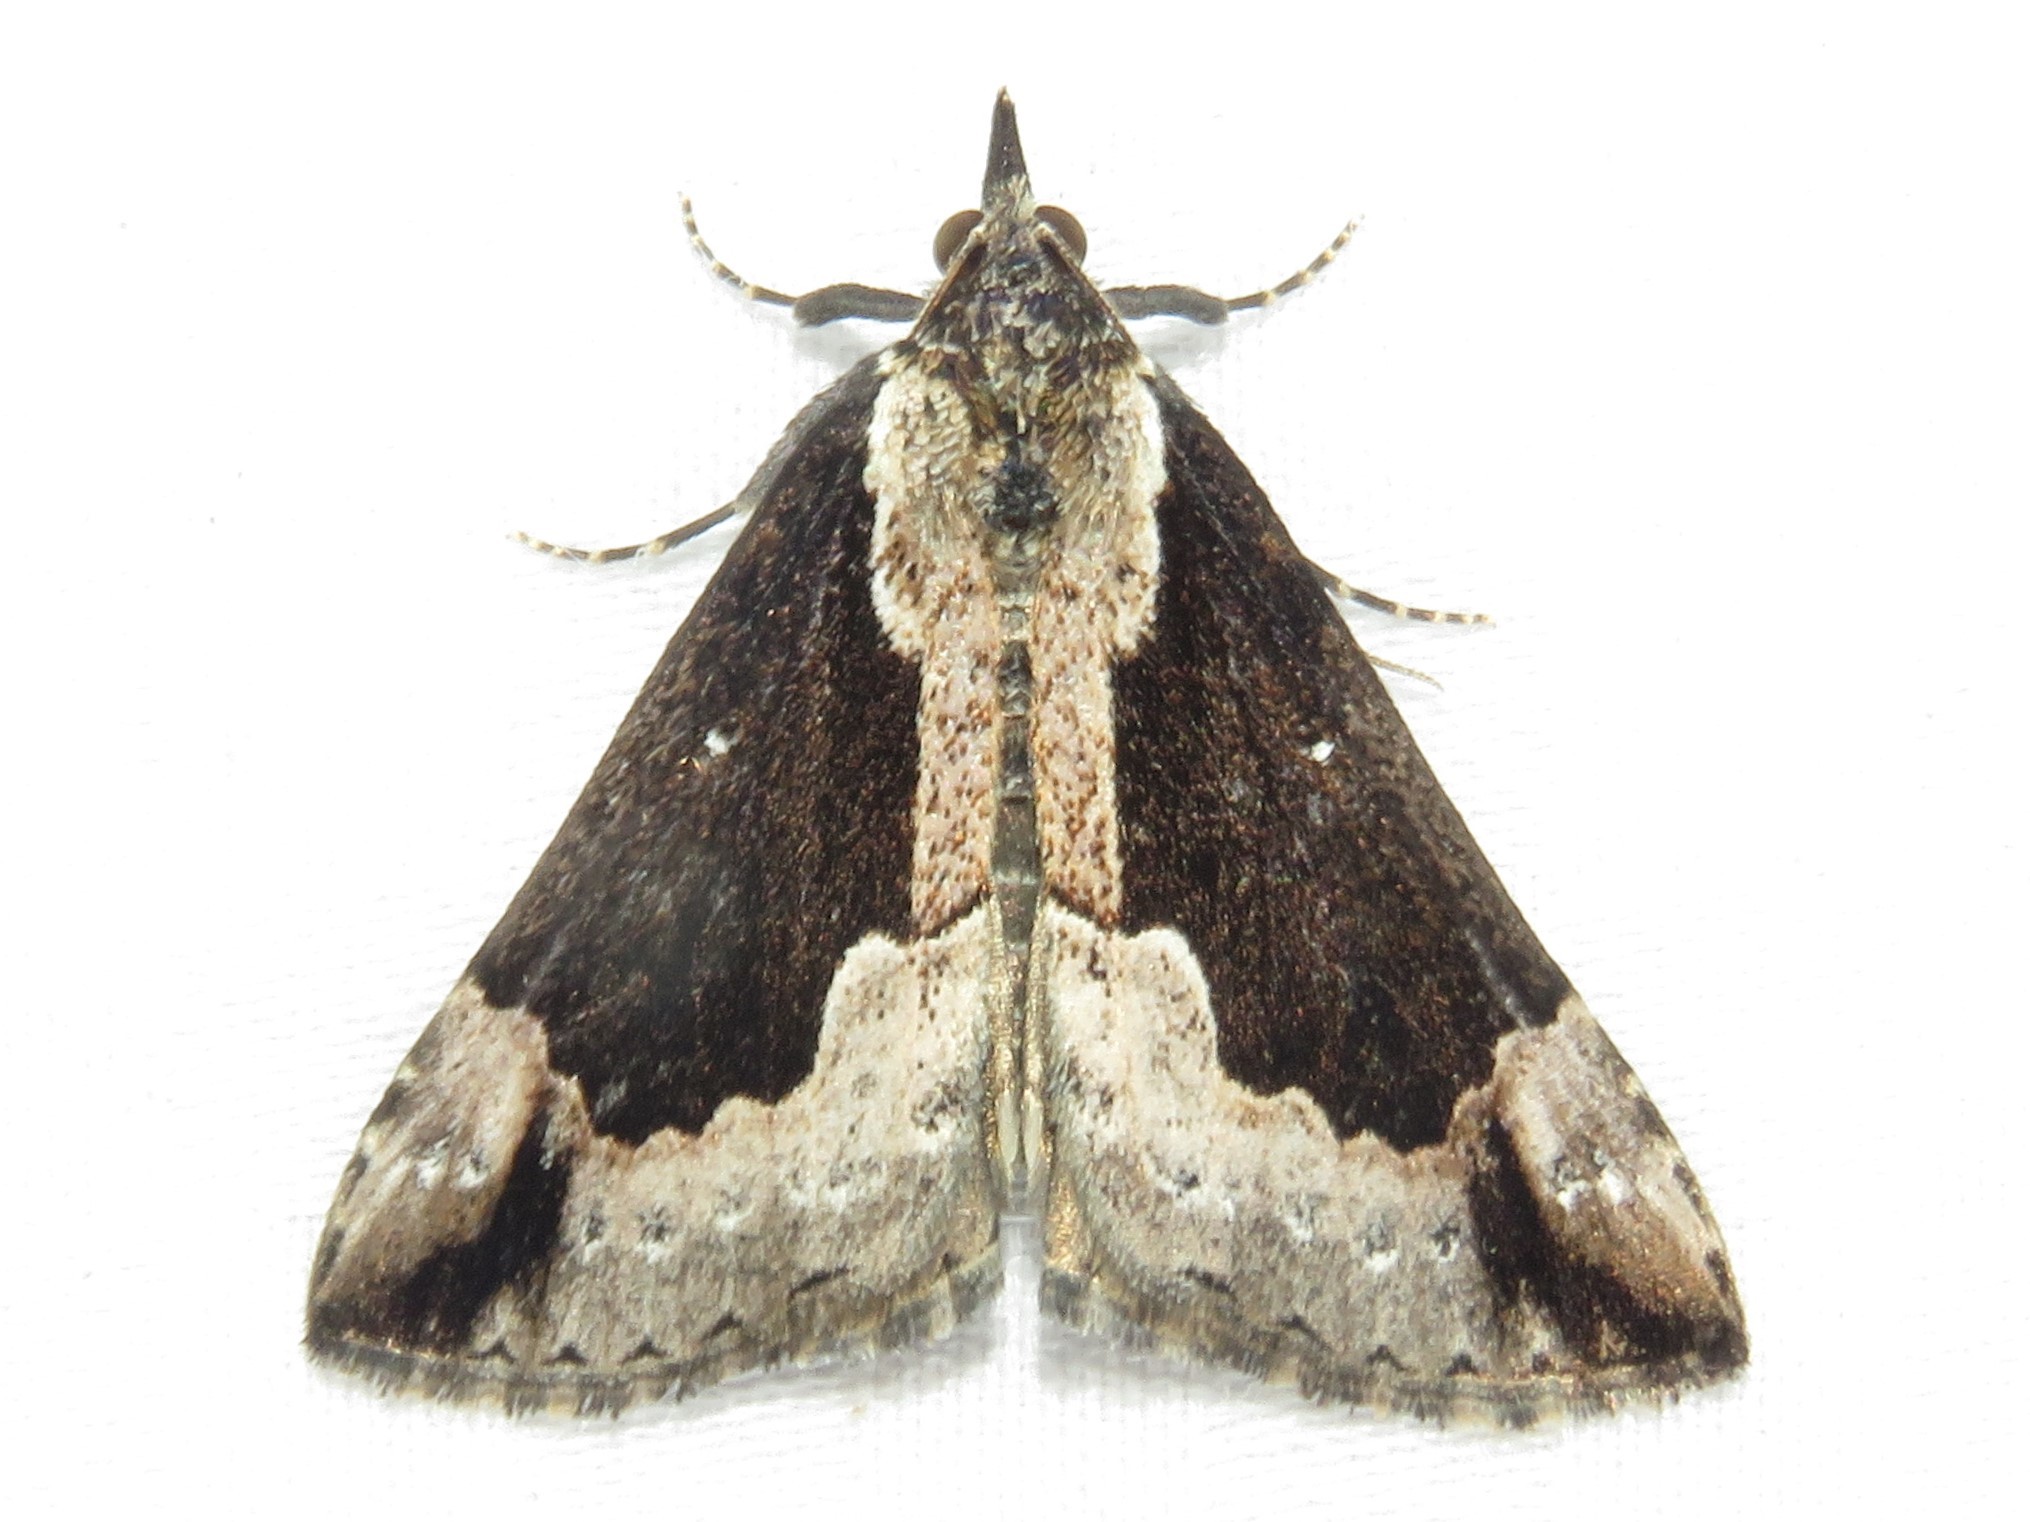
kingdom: Animalia
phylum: Arthropoda
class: Insecta
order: Lepidoptera
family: Erebidae
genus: Hypena
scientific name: Hypena baltimoralis
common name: Baltimore snout
